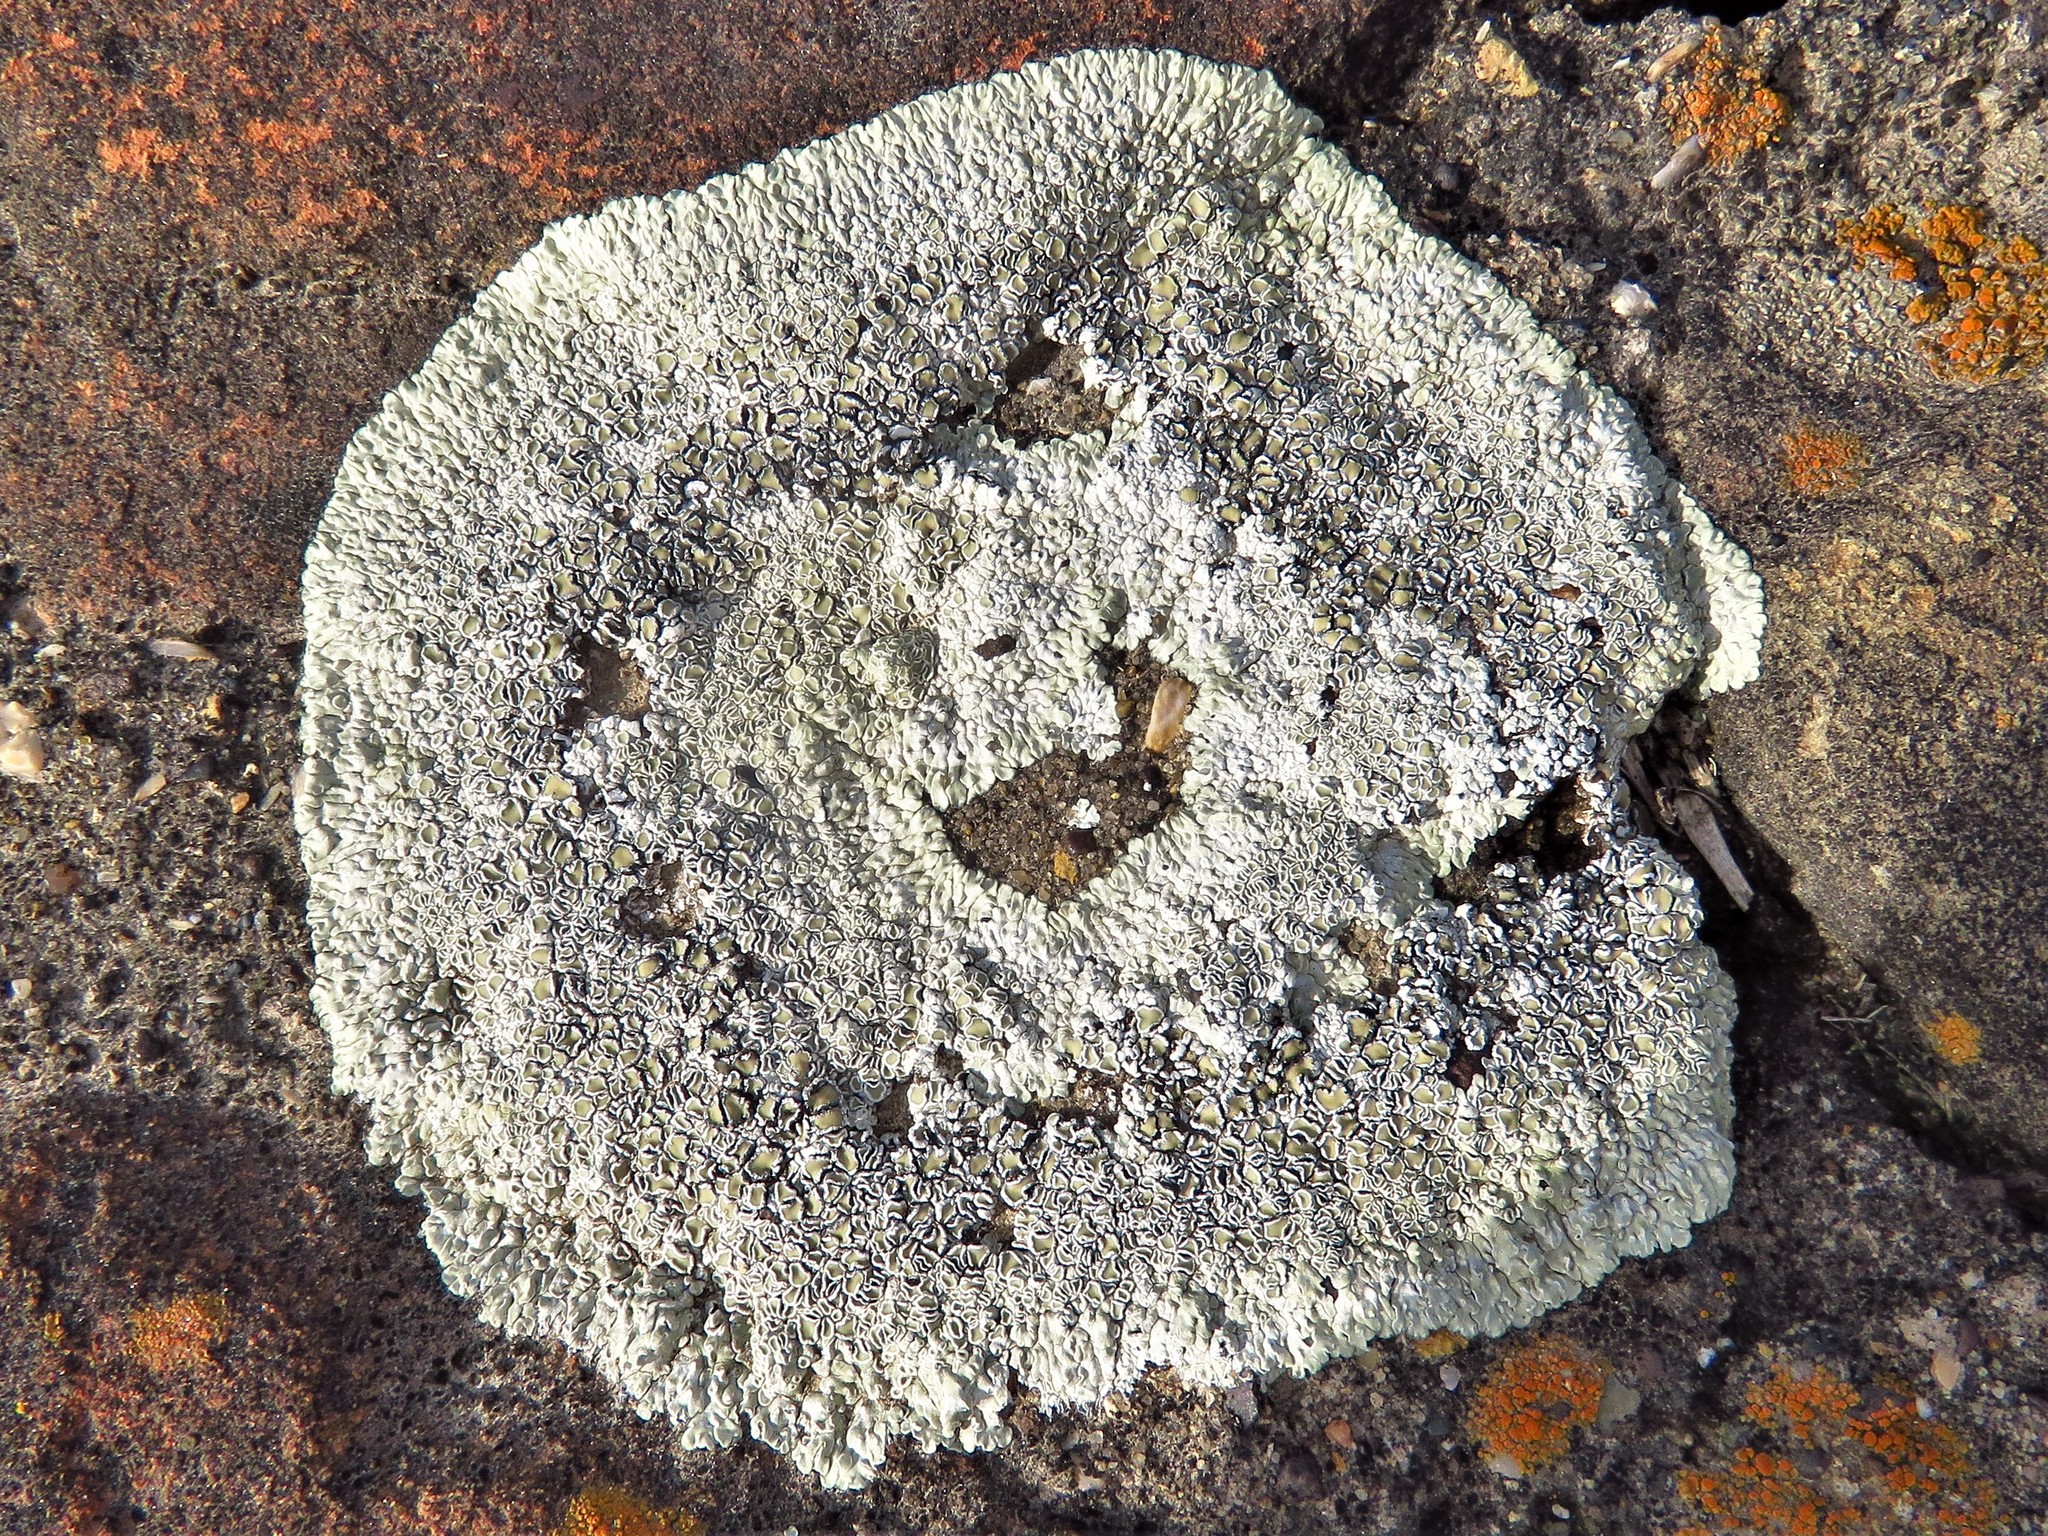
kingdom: Fungi
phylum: Ascomycota
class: Lecanoromycetes
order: Lecanorales
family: Lecanoraceae
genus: Protoparmeliopsis
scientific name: Protoparmeliopsis muralis
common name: Stonewall rim lichen
